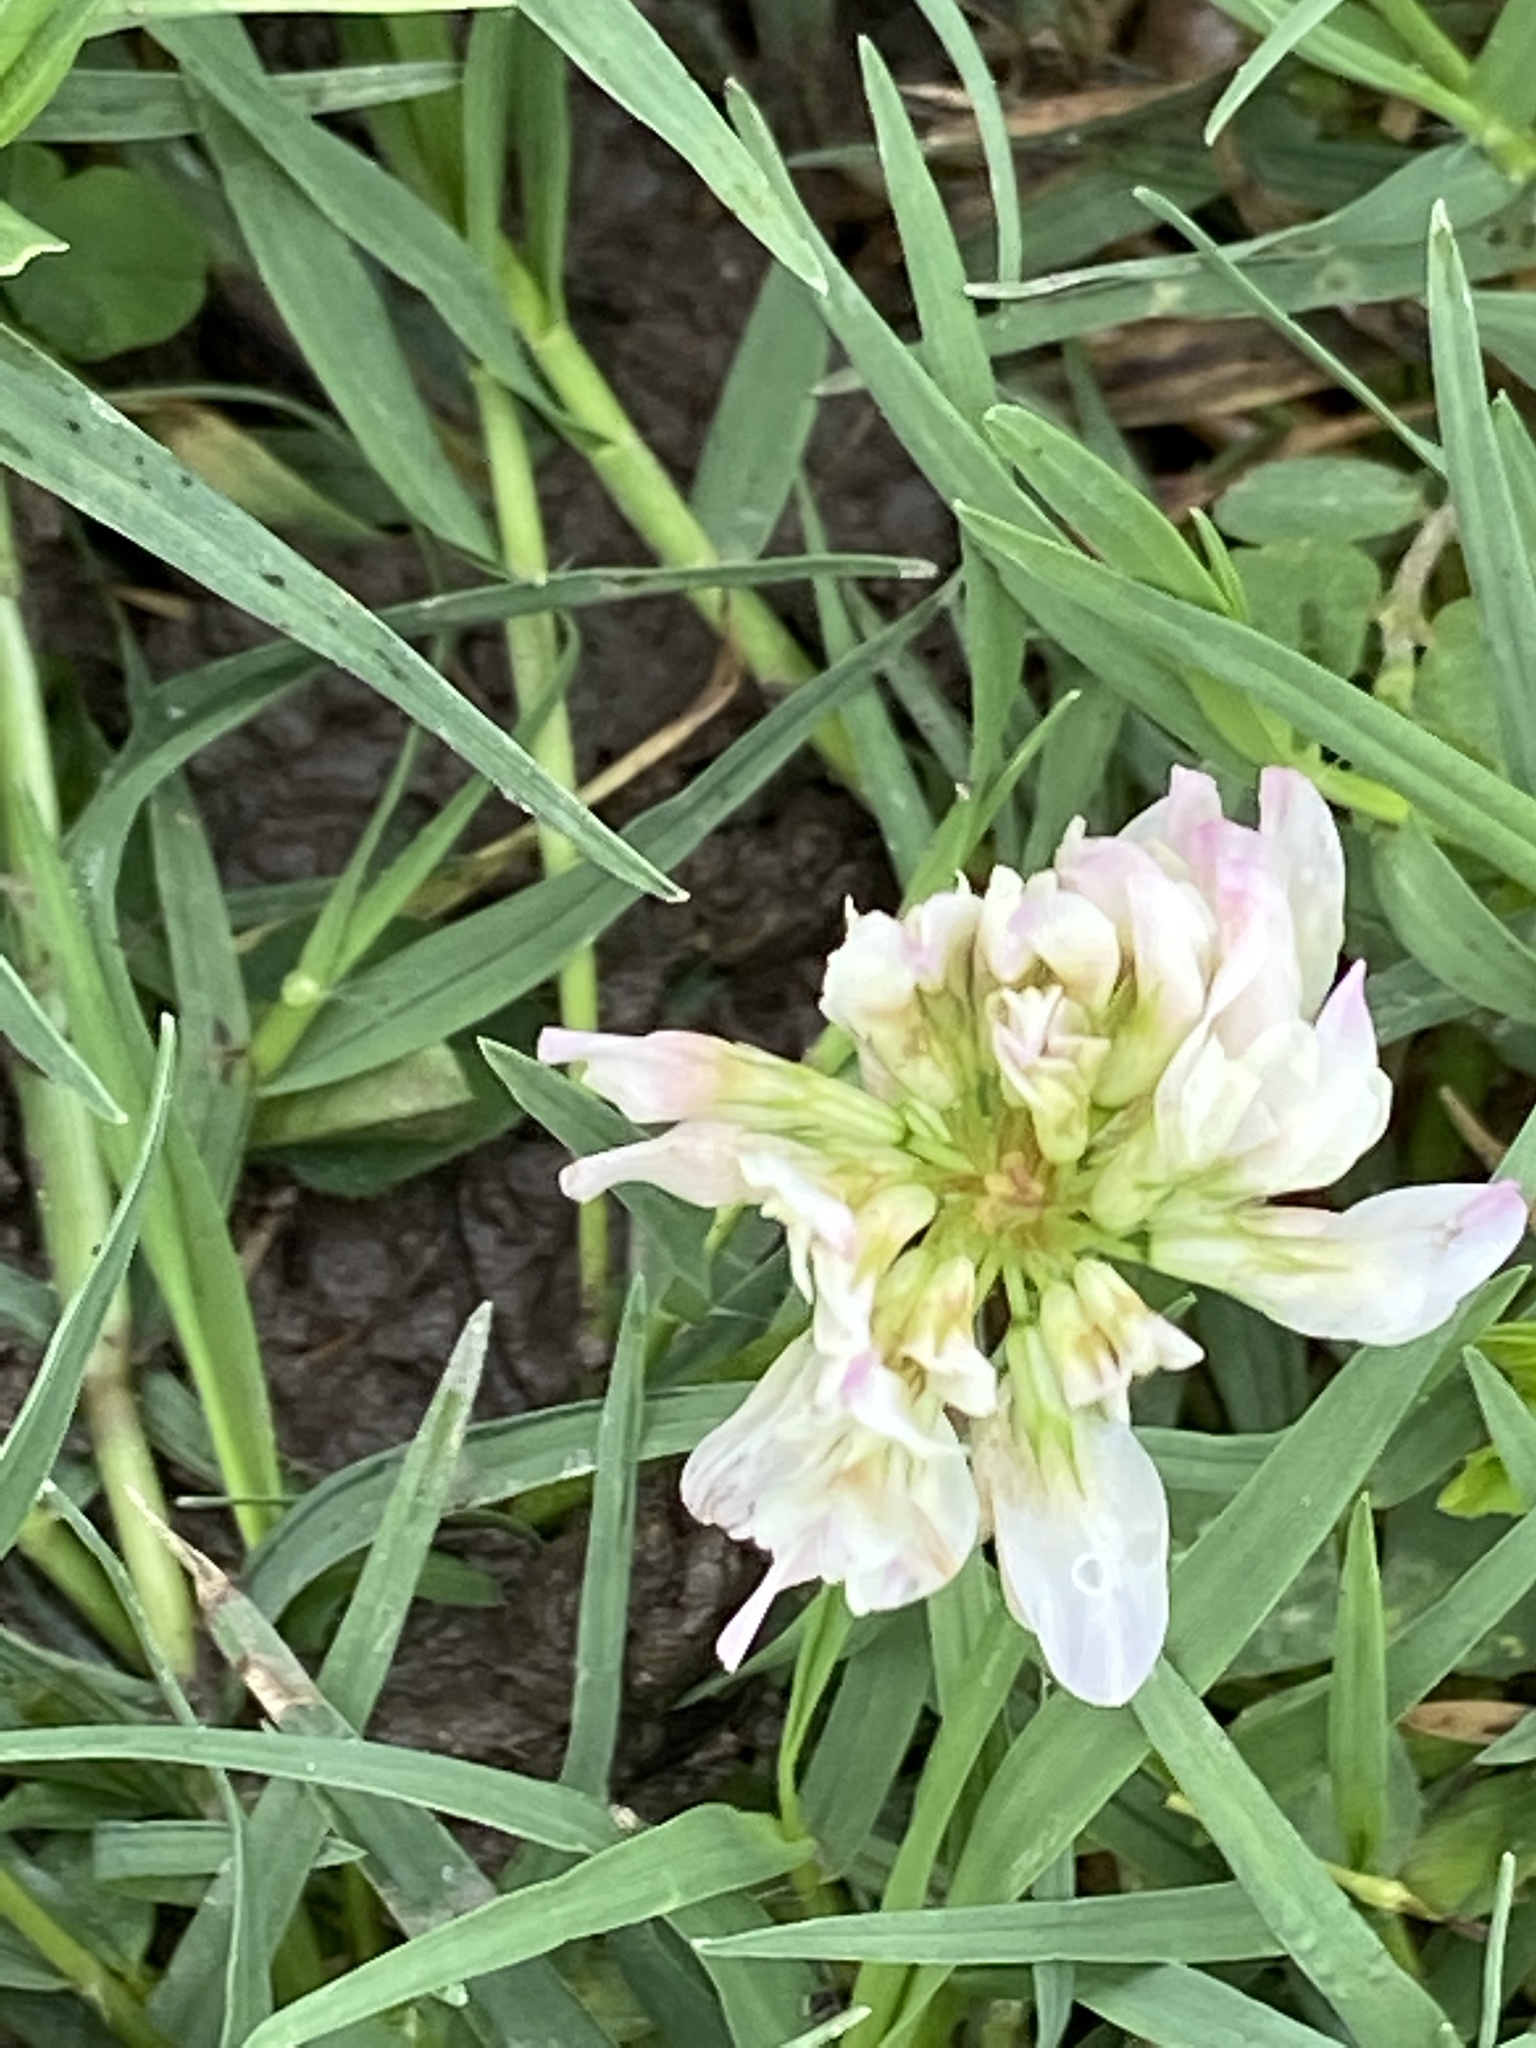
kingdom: Plantae
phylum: Tracheophyta
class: Magnoliopsida
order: Fabales
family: Fabaceae
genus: Trifolium
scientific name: Trifolium repens
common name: White clover
